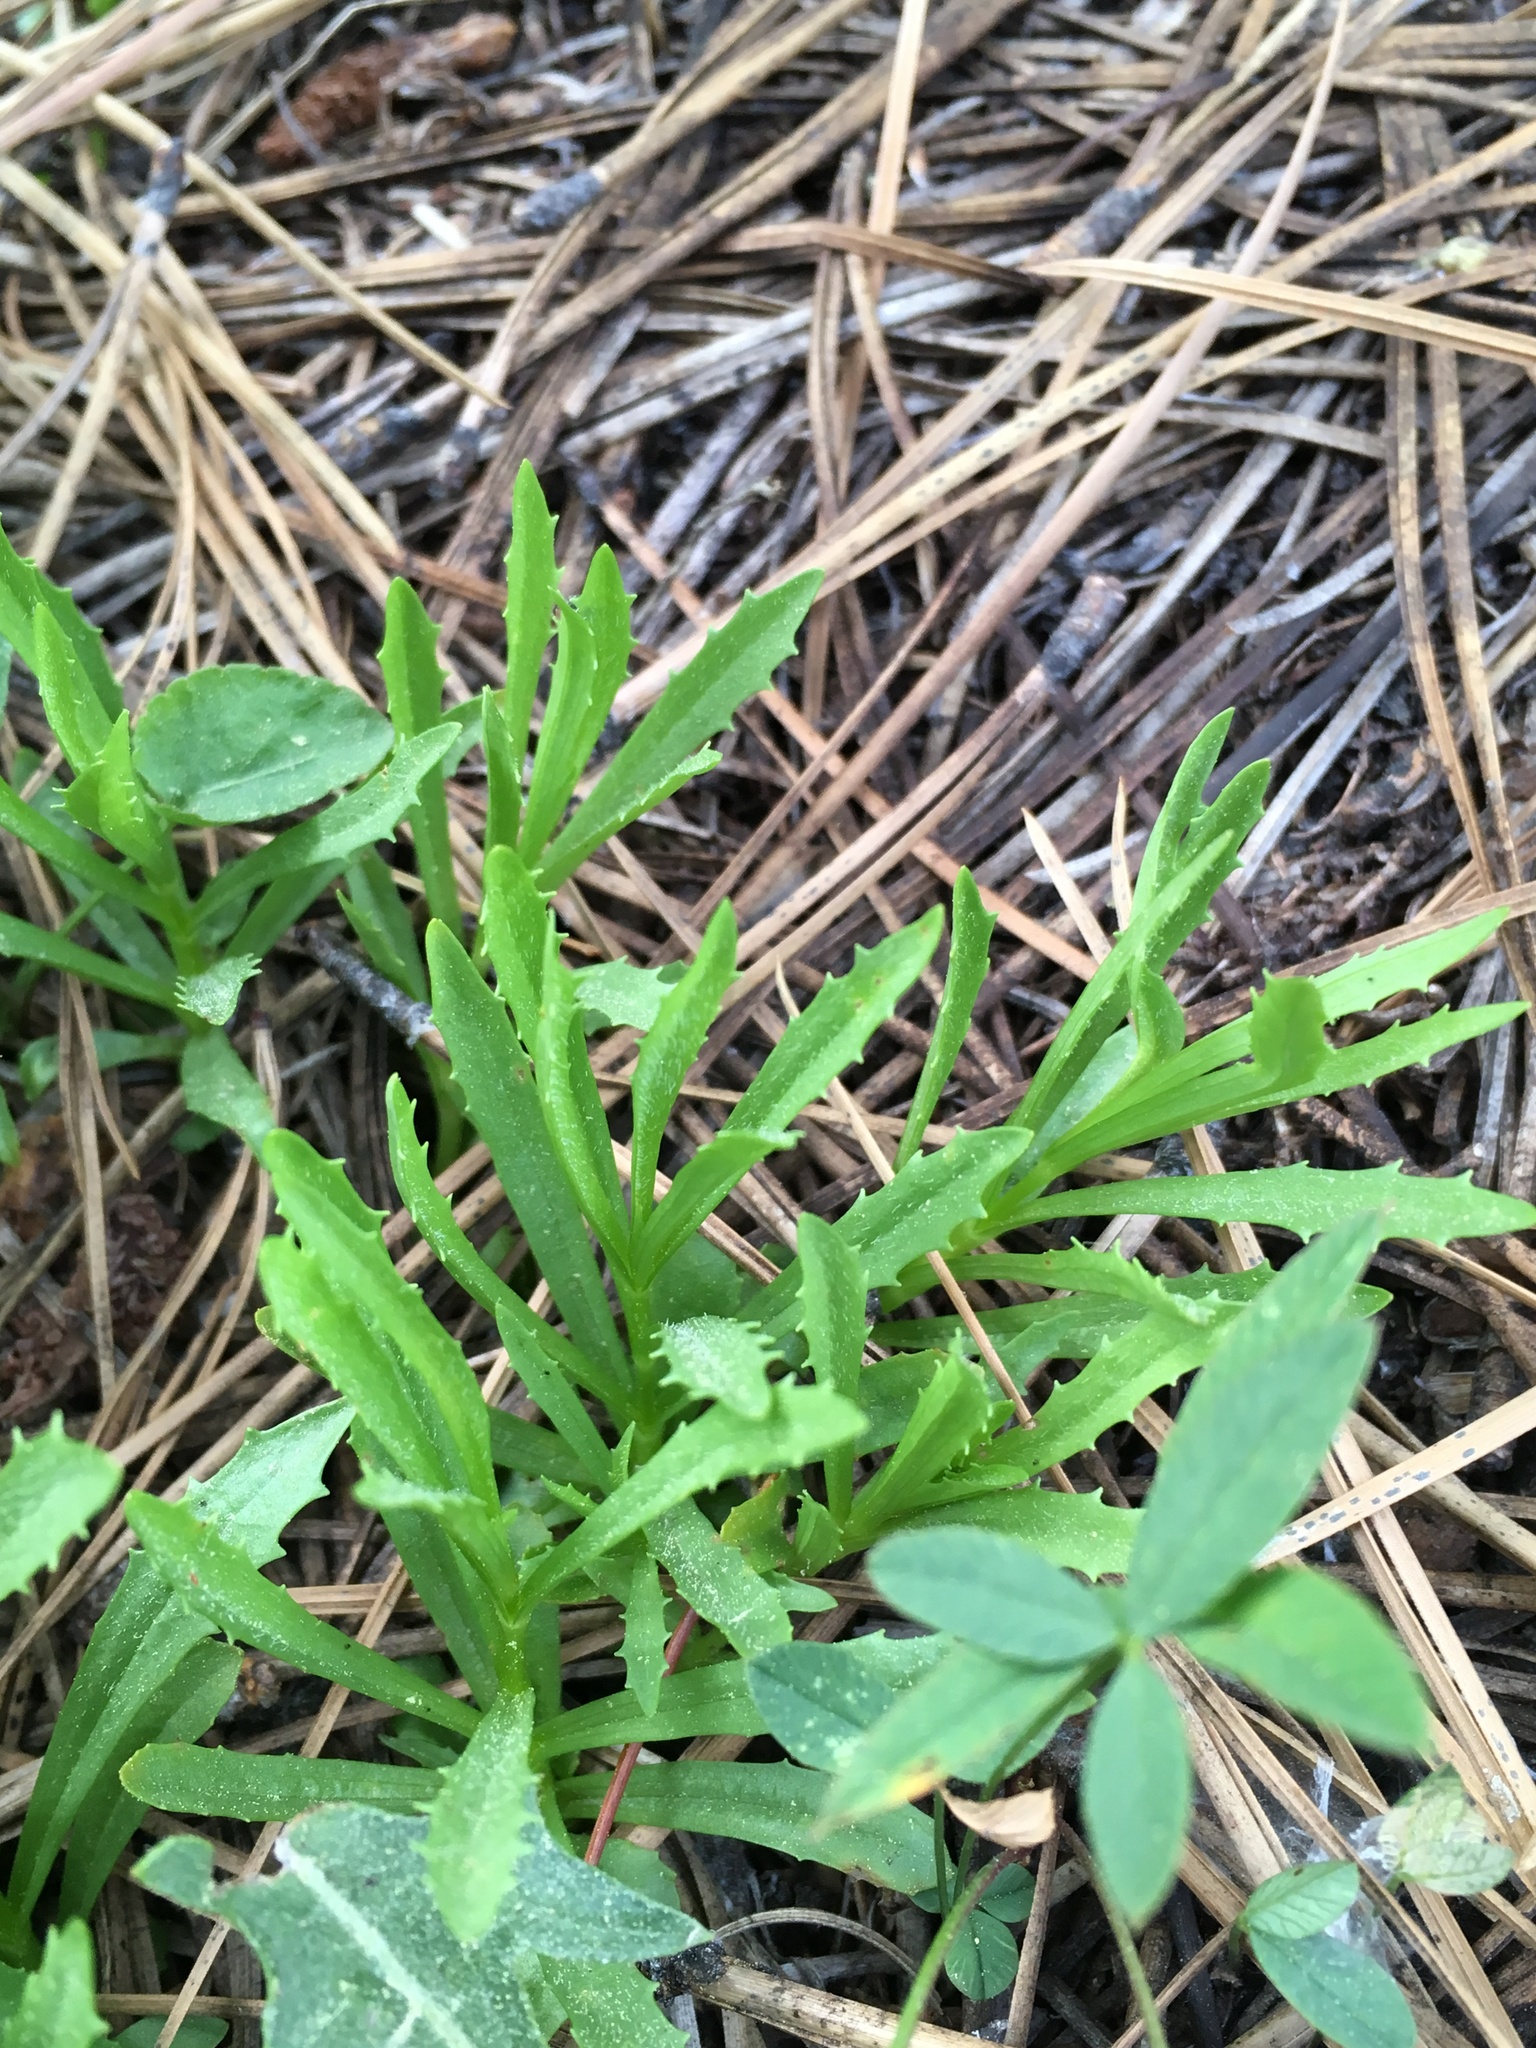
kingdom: Plantae
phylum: Tracheophyta
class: Magnoliopsida
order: Lamiales
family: Phrymaceae
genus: Erythranthe
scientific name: Erythranthe linearifolia
